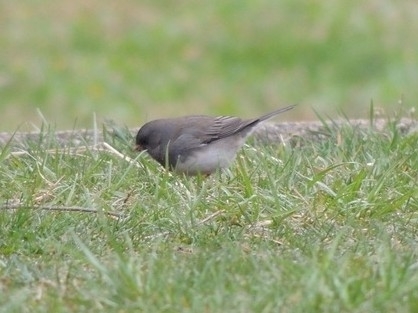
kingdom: Animalia
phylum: Chordata
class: Aves
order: Passeriformes
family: Passerellidae
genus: Junco
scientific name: Junco hyemalis
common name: Dark-eyed junco
